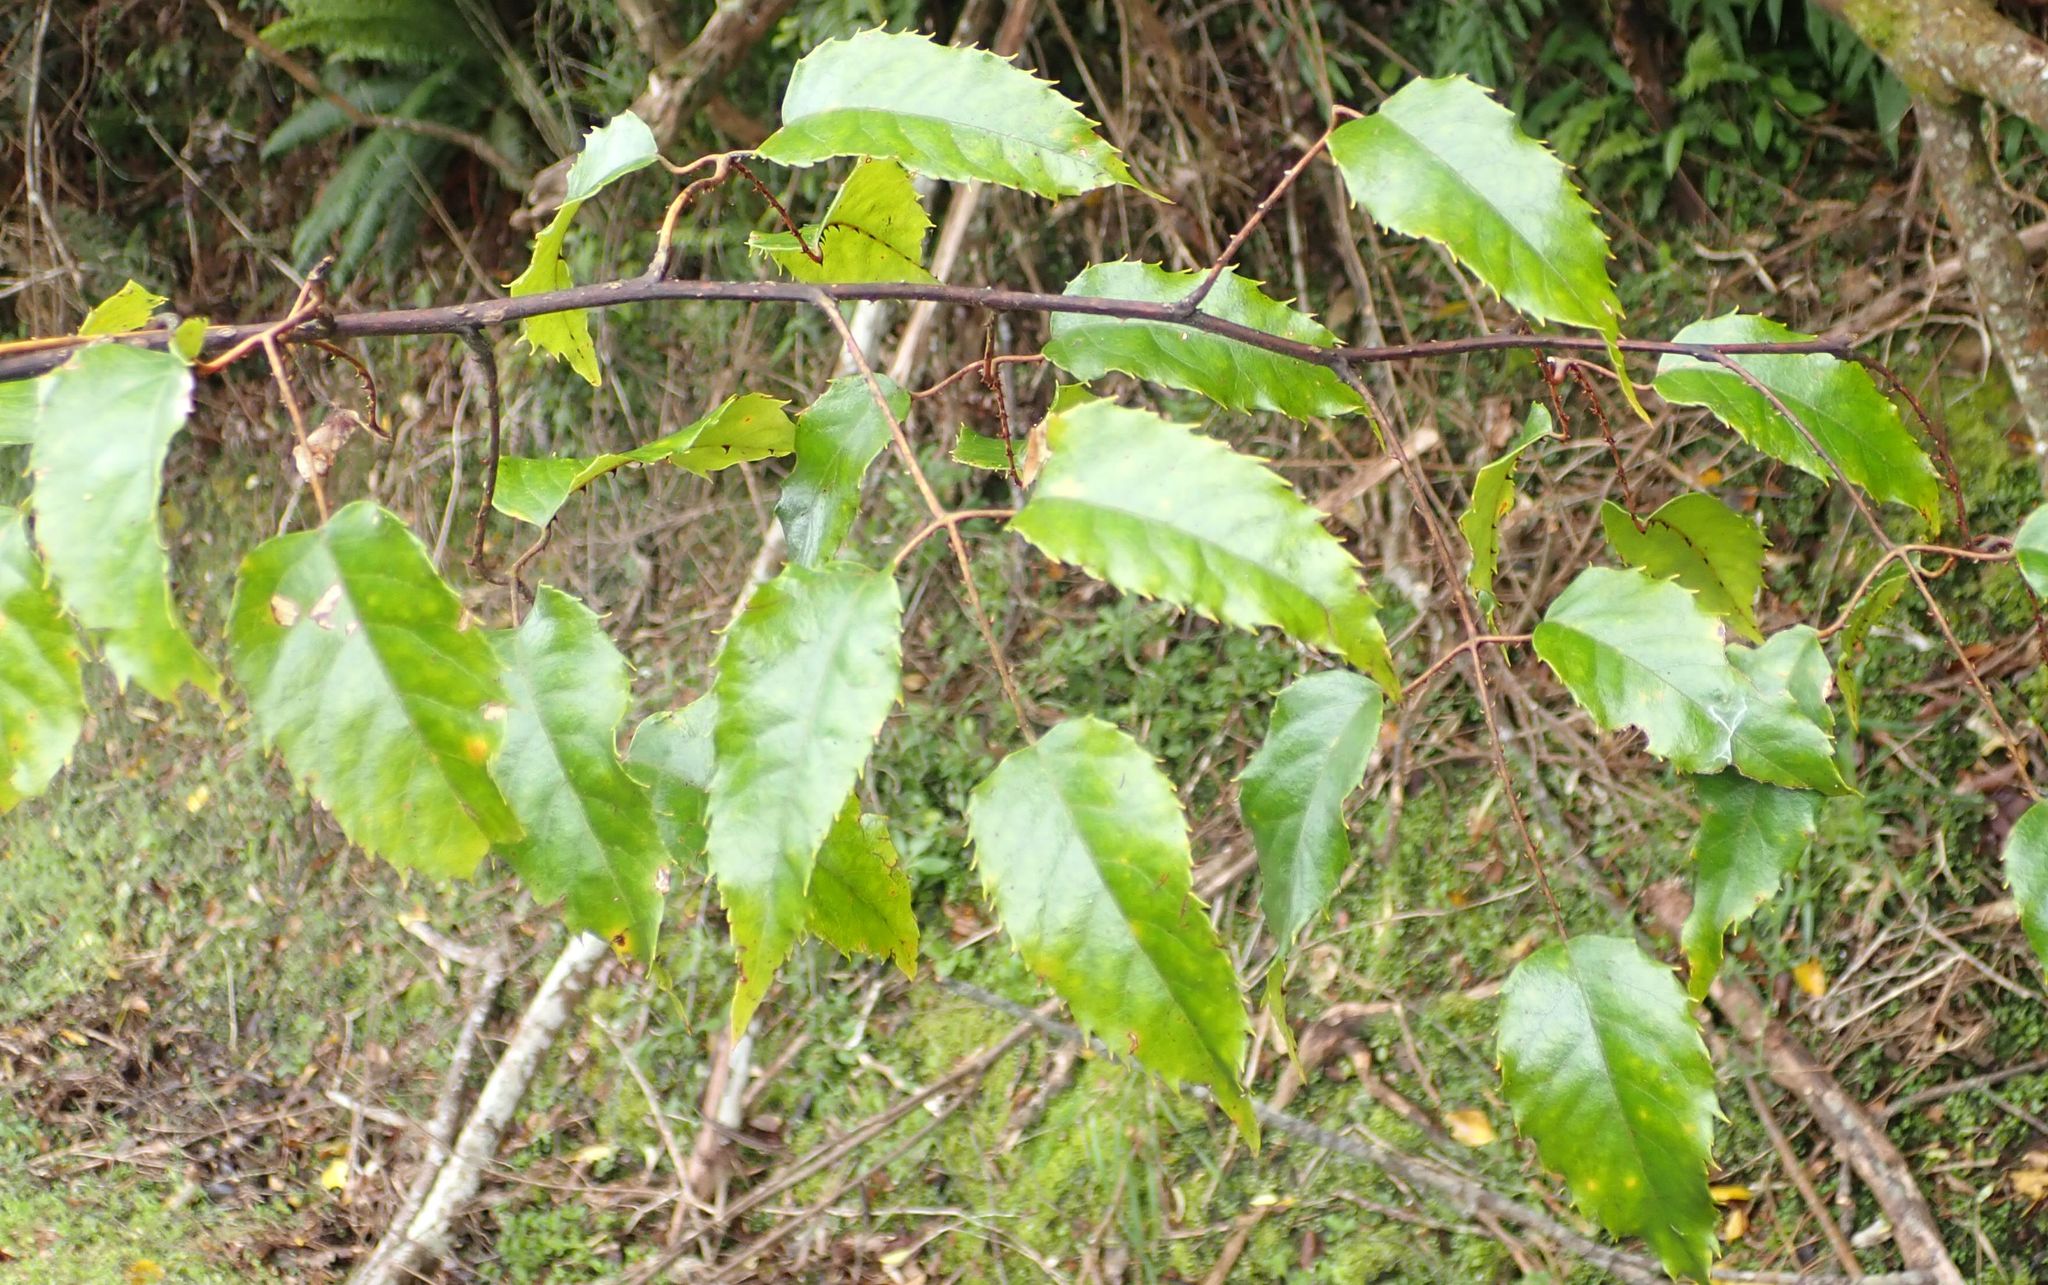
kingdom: Plantae
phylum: Tracheophyta
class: Magnoliopsida
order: Rosales
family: Rosaceae
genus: Rubus
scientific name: Rubus cissoides
